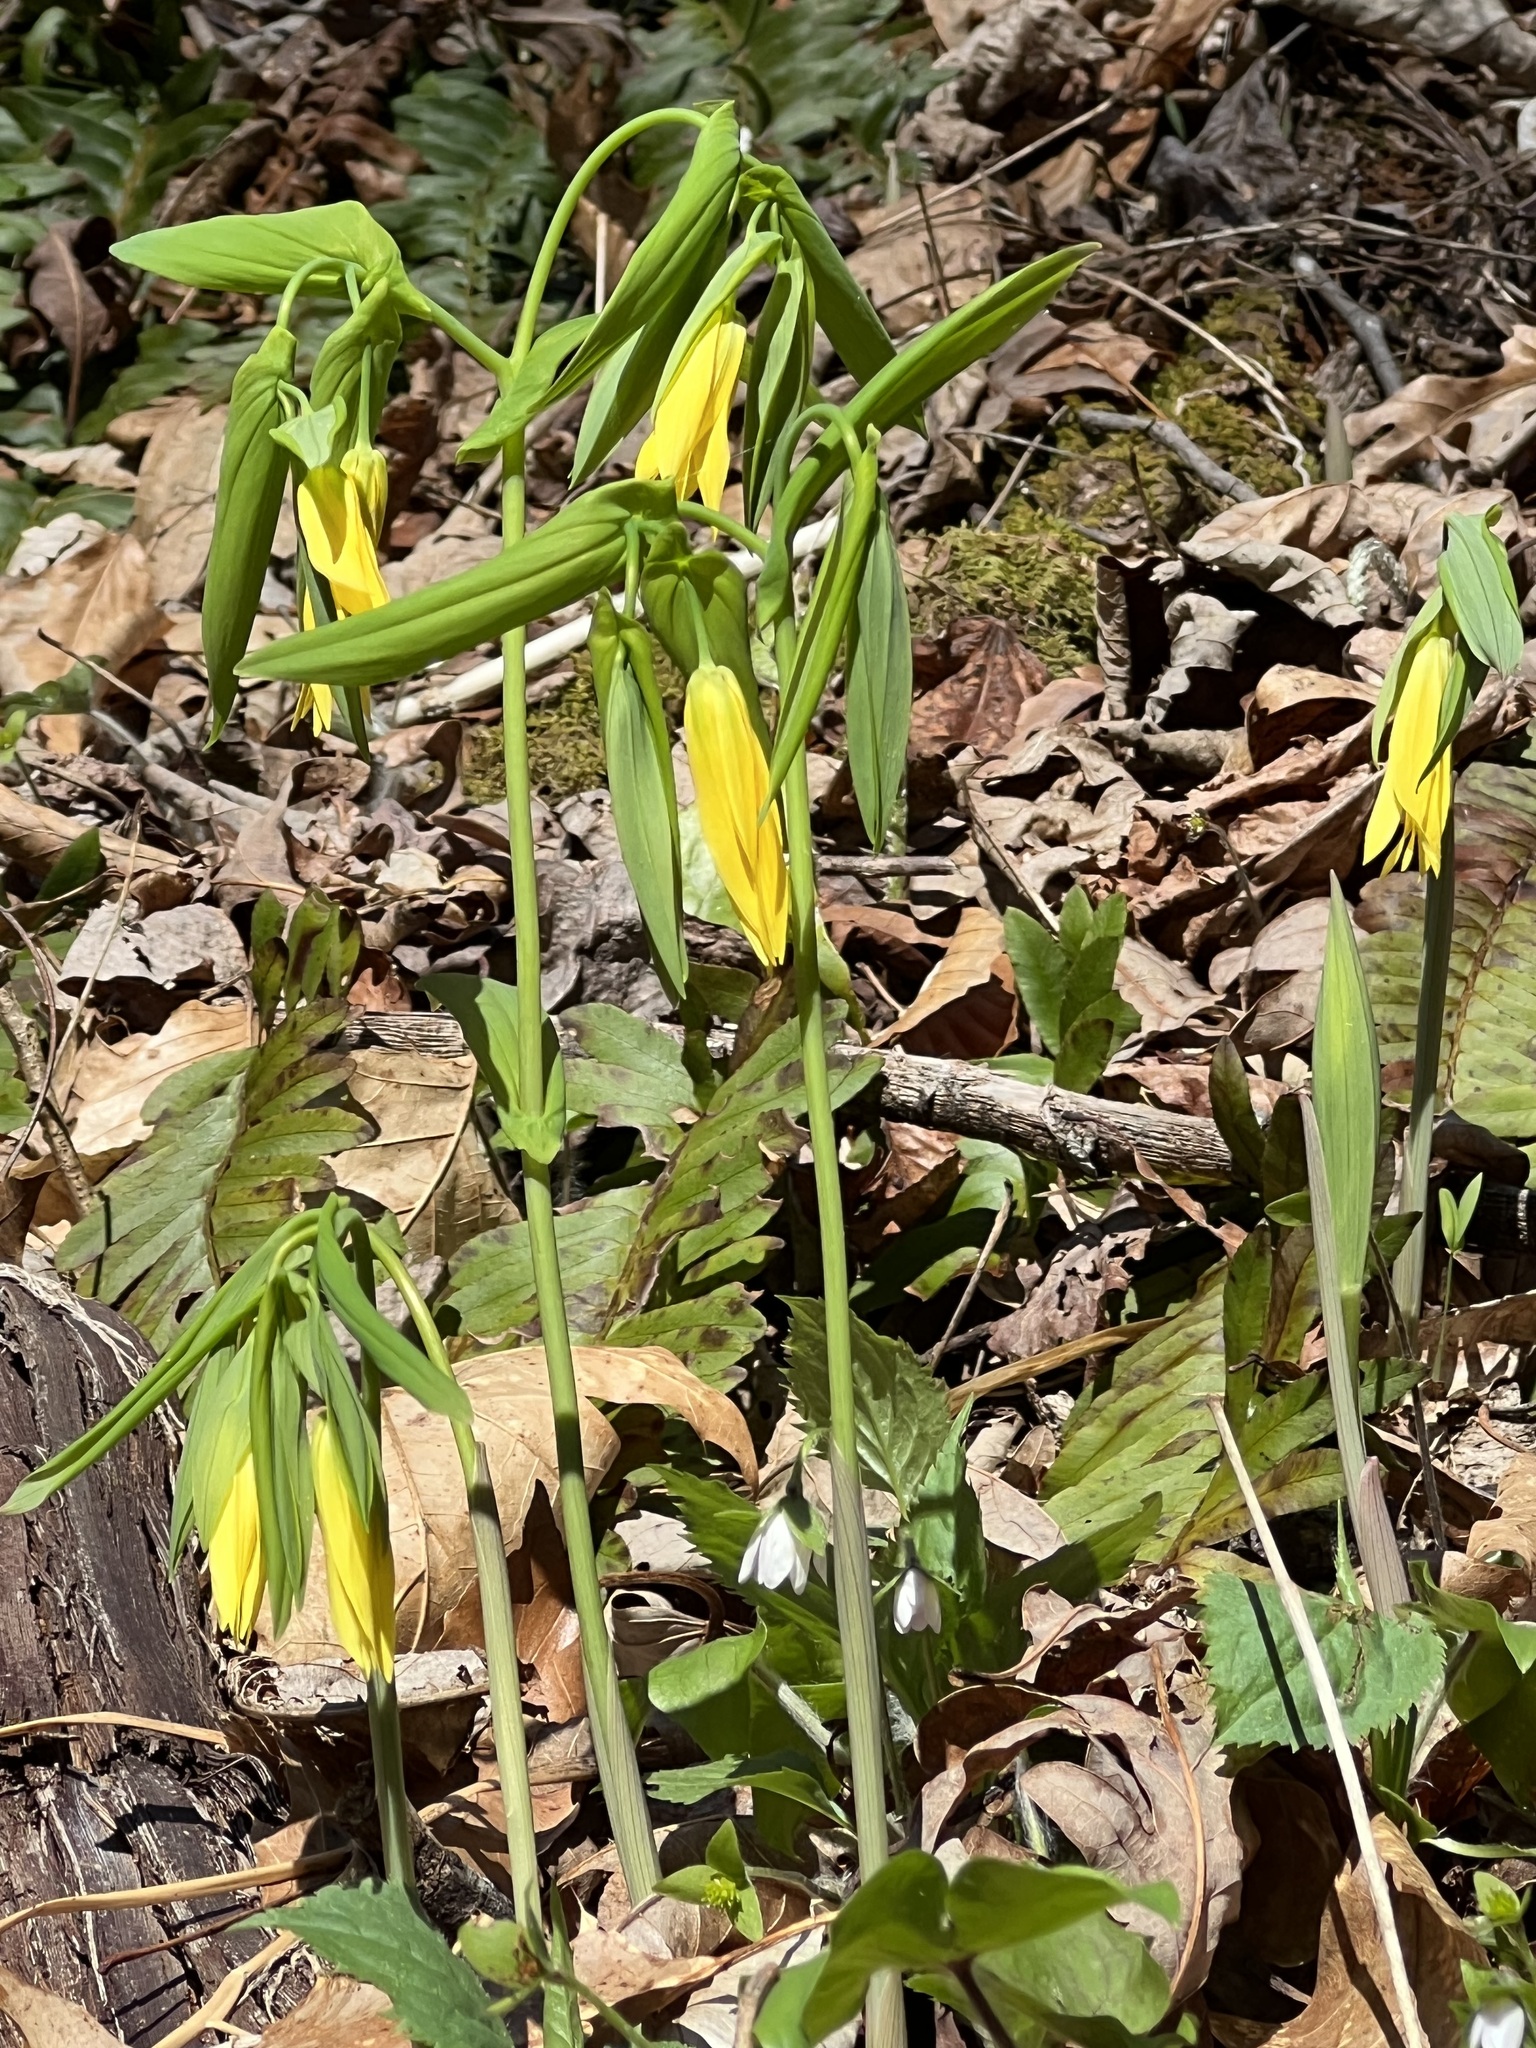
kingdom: Plantae
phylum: Tracheophyta
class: Liliopsida
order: Liliales
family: Colchicaceae
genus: Uvularia
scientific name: Uvularia grandiflora
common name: Bellwort
